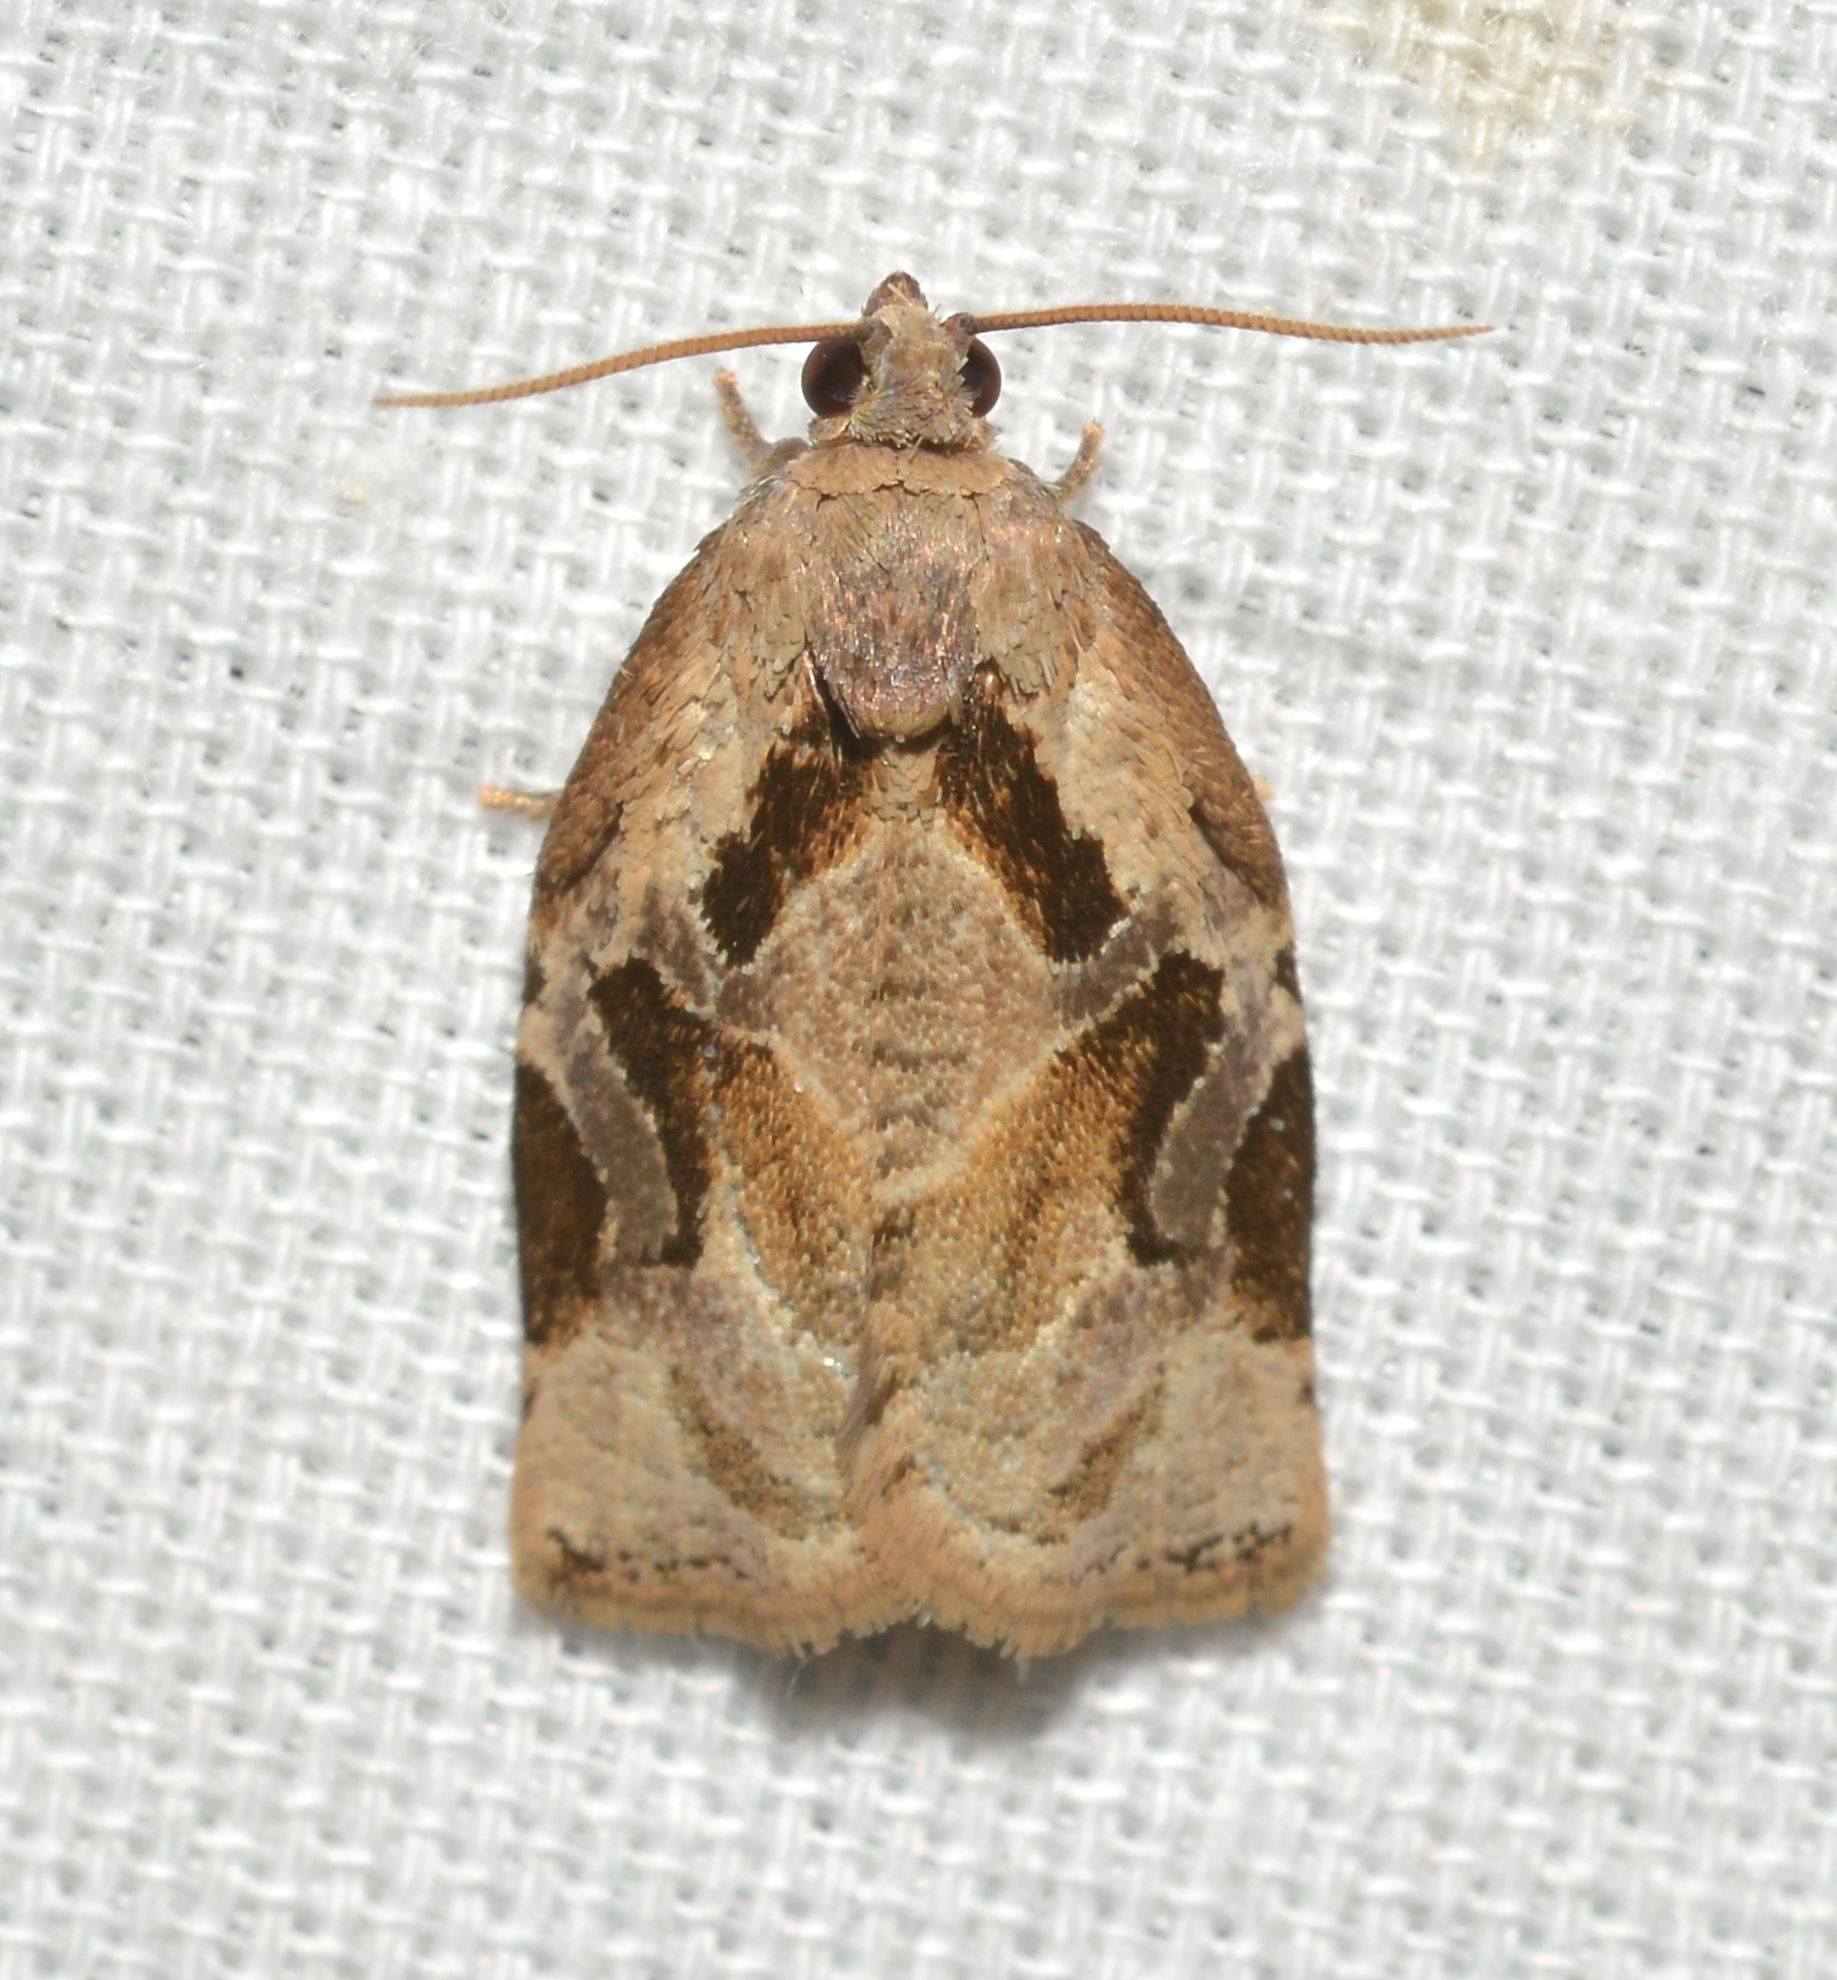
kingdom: Animalia
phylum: Arthropoda
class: Insecta
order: Lepidoptera
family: Tortricidae
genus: Archips
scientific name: Archips grisea
